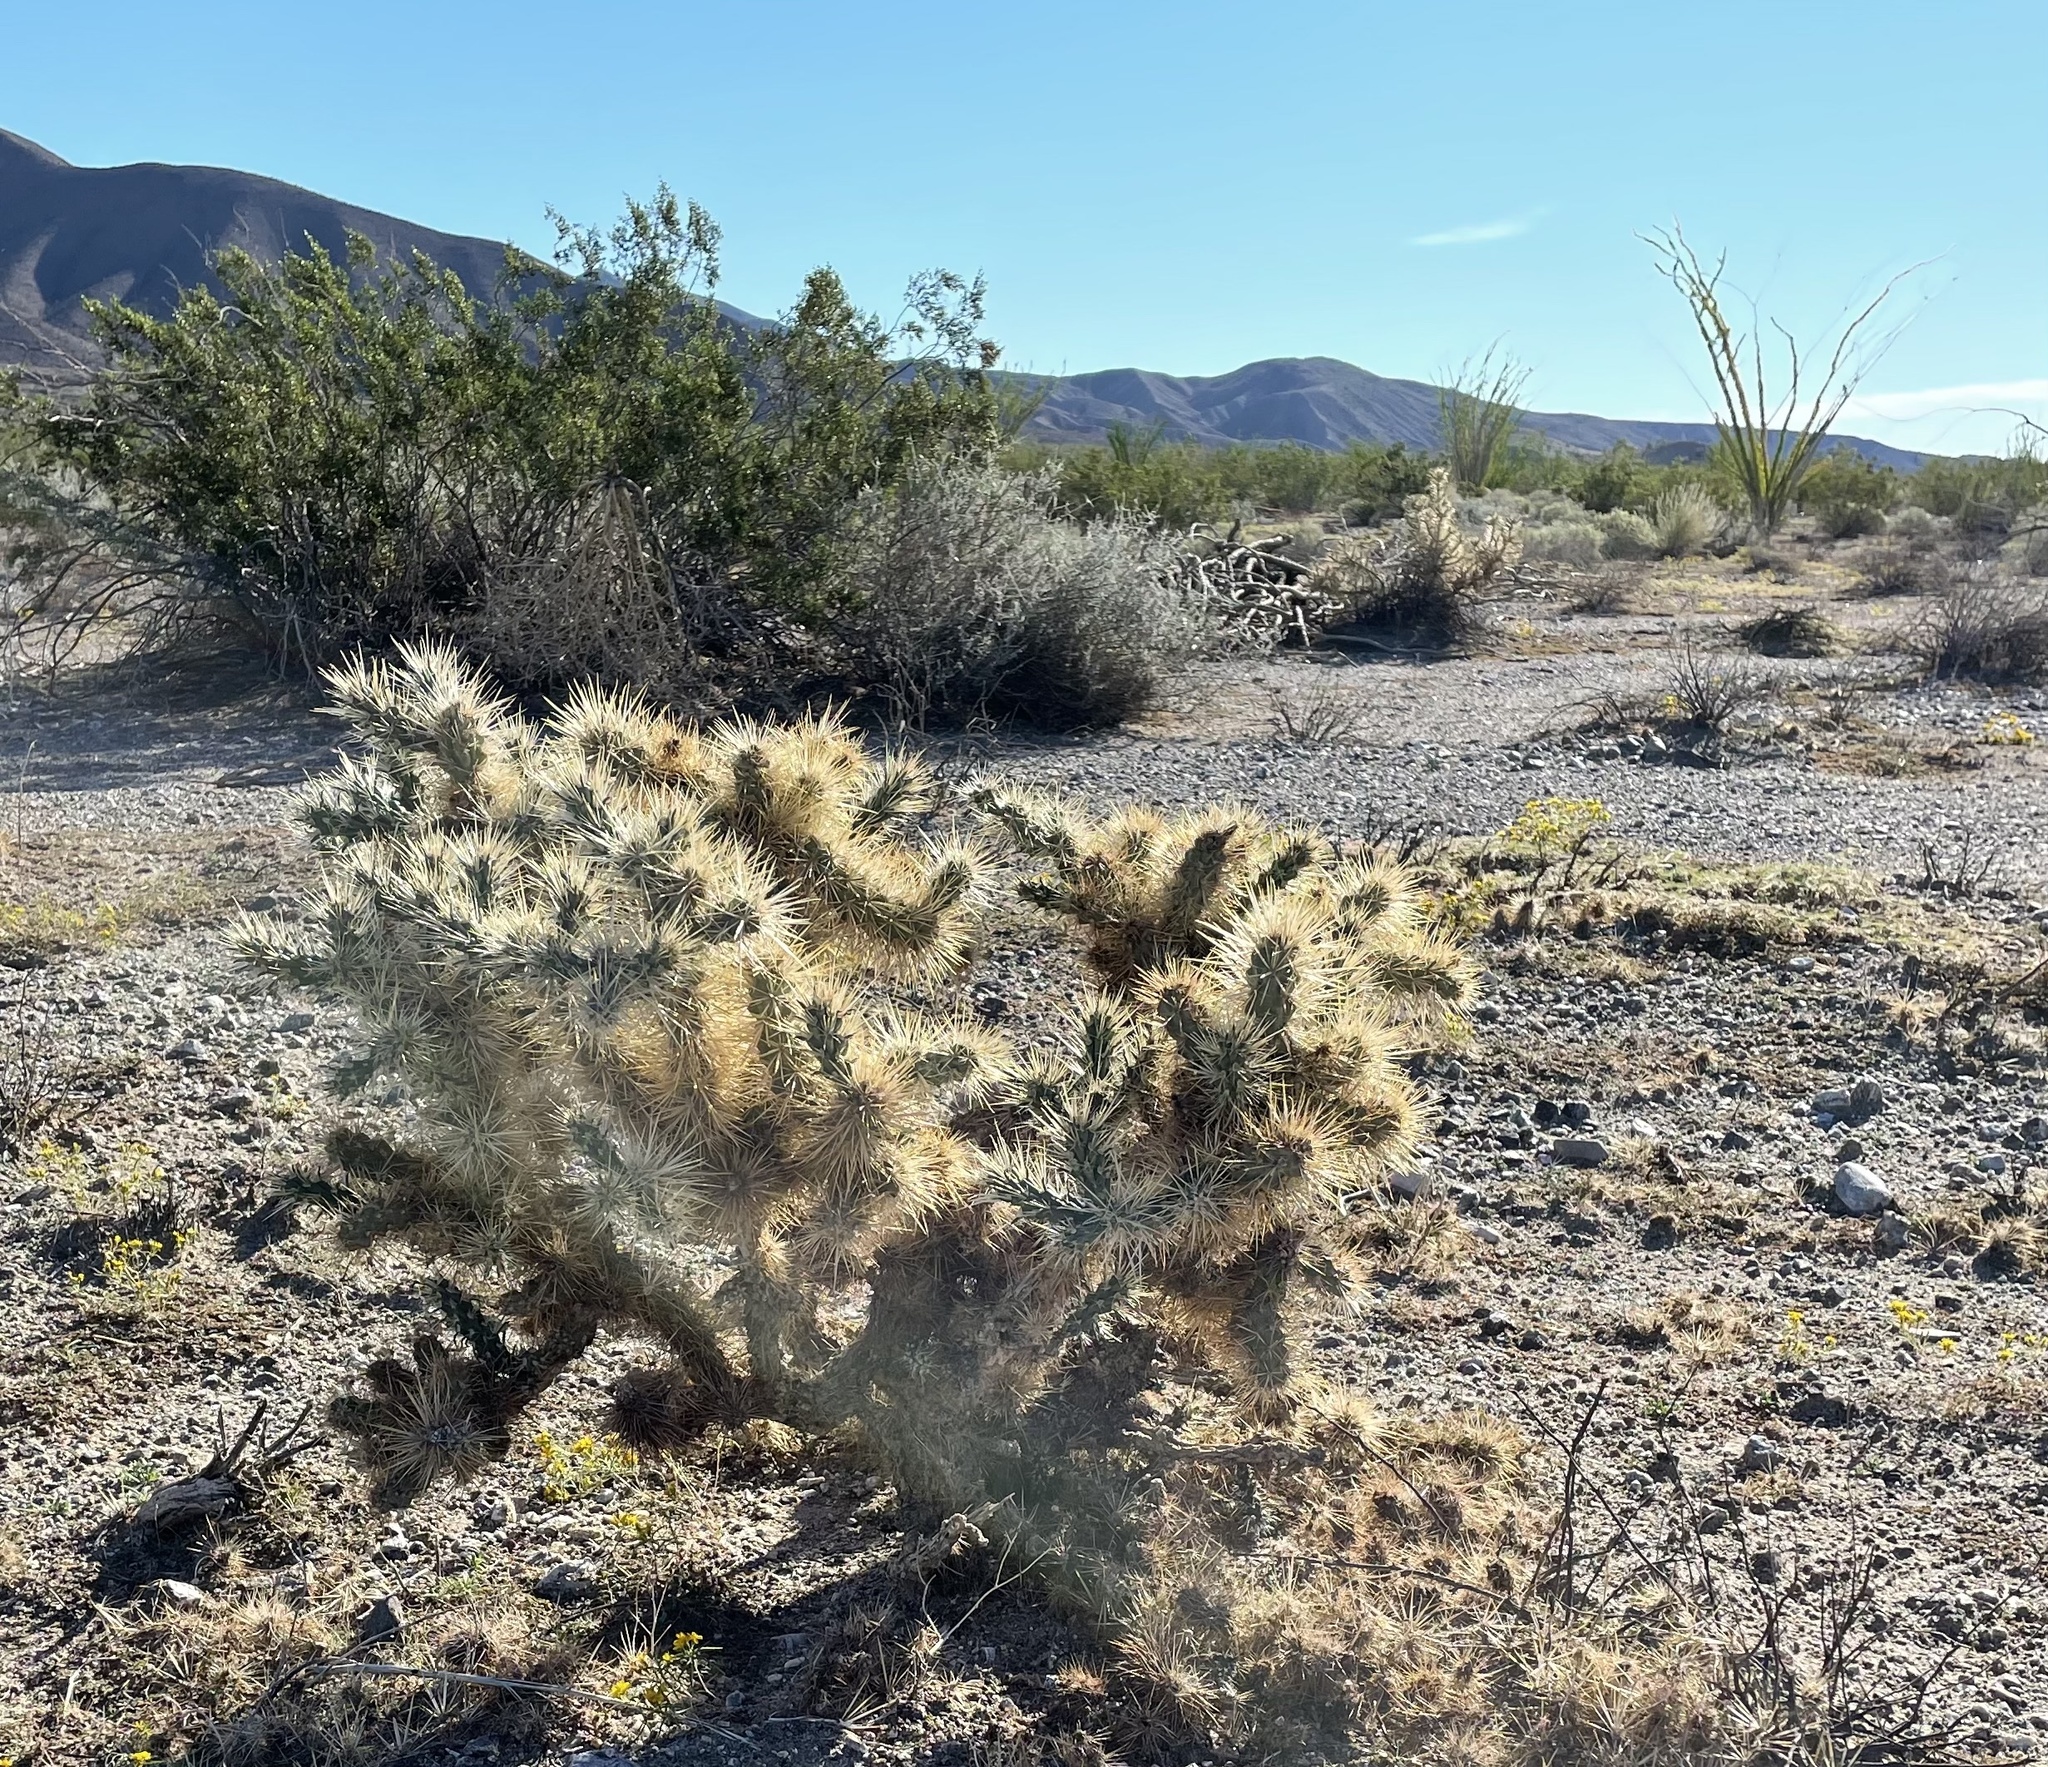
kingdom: Plantae
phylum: Tracheophyta
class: Magnoliopsida
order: Caryophyllales
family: Cactaceae
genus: Cylindropuntia
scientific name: Cylindropuntia echinocarpa
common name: Ground cholla
